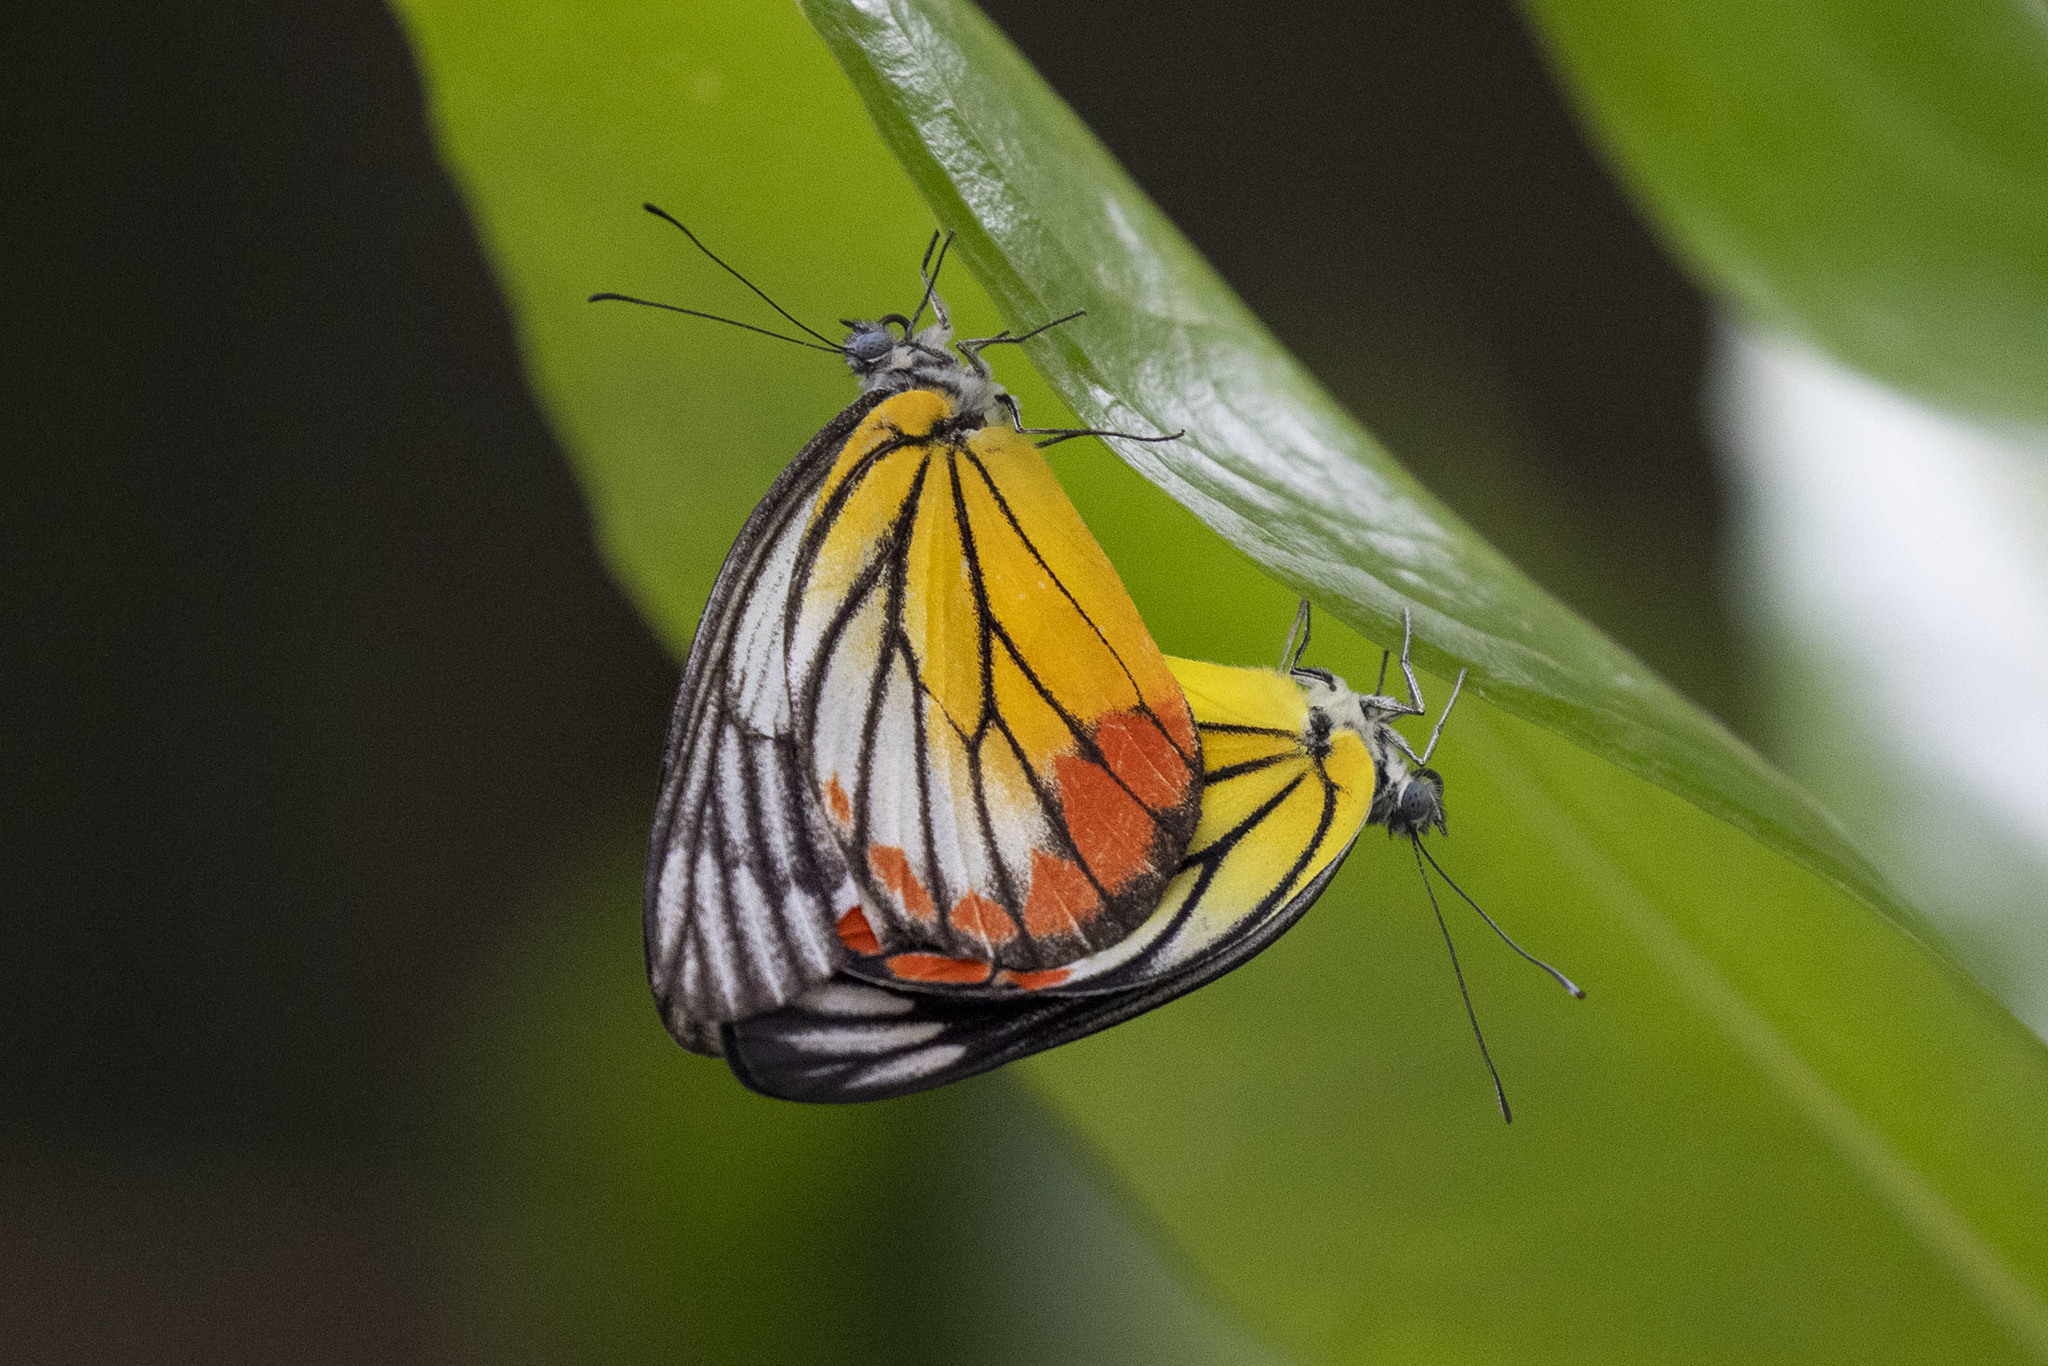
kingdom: Animalia
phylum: Arthropoda
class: Insecta
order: Lepidoptera
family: Pieridae
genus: Delias
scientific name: Delias hyparete
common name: Painted jezebel
